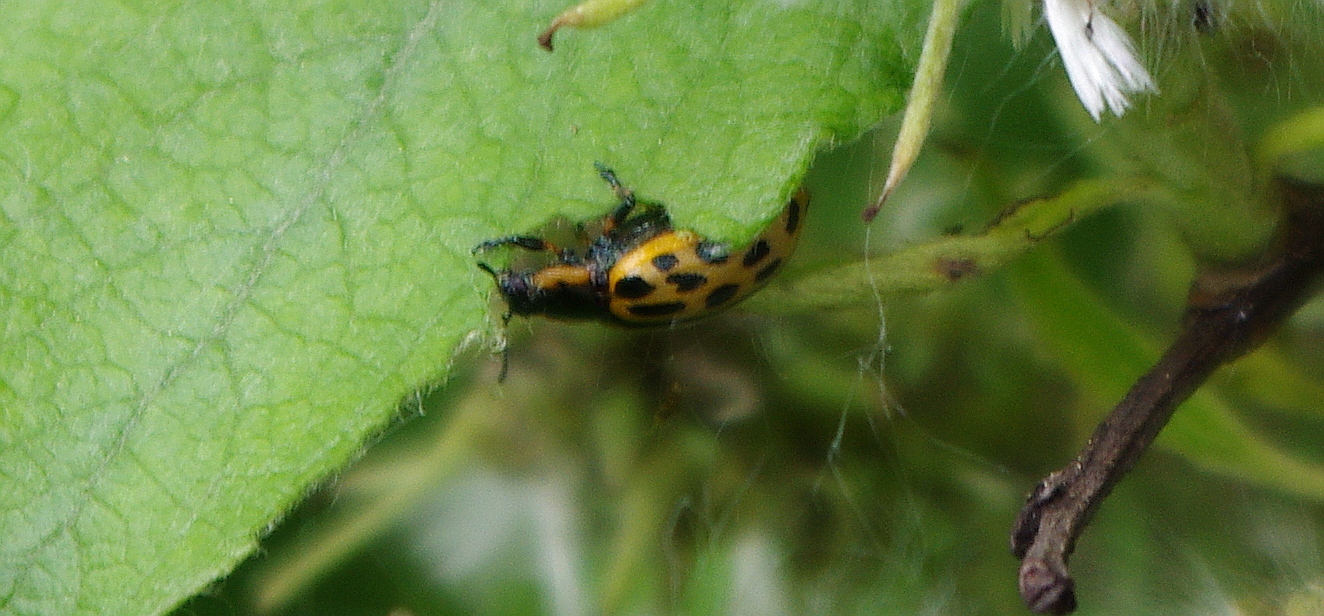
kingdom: Animalia
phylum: Arthropoda
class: Insecta
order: Coleoptera
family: Chrysomelidae
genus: Chrysomela
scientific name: Chrysomela vigintipunctata
